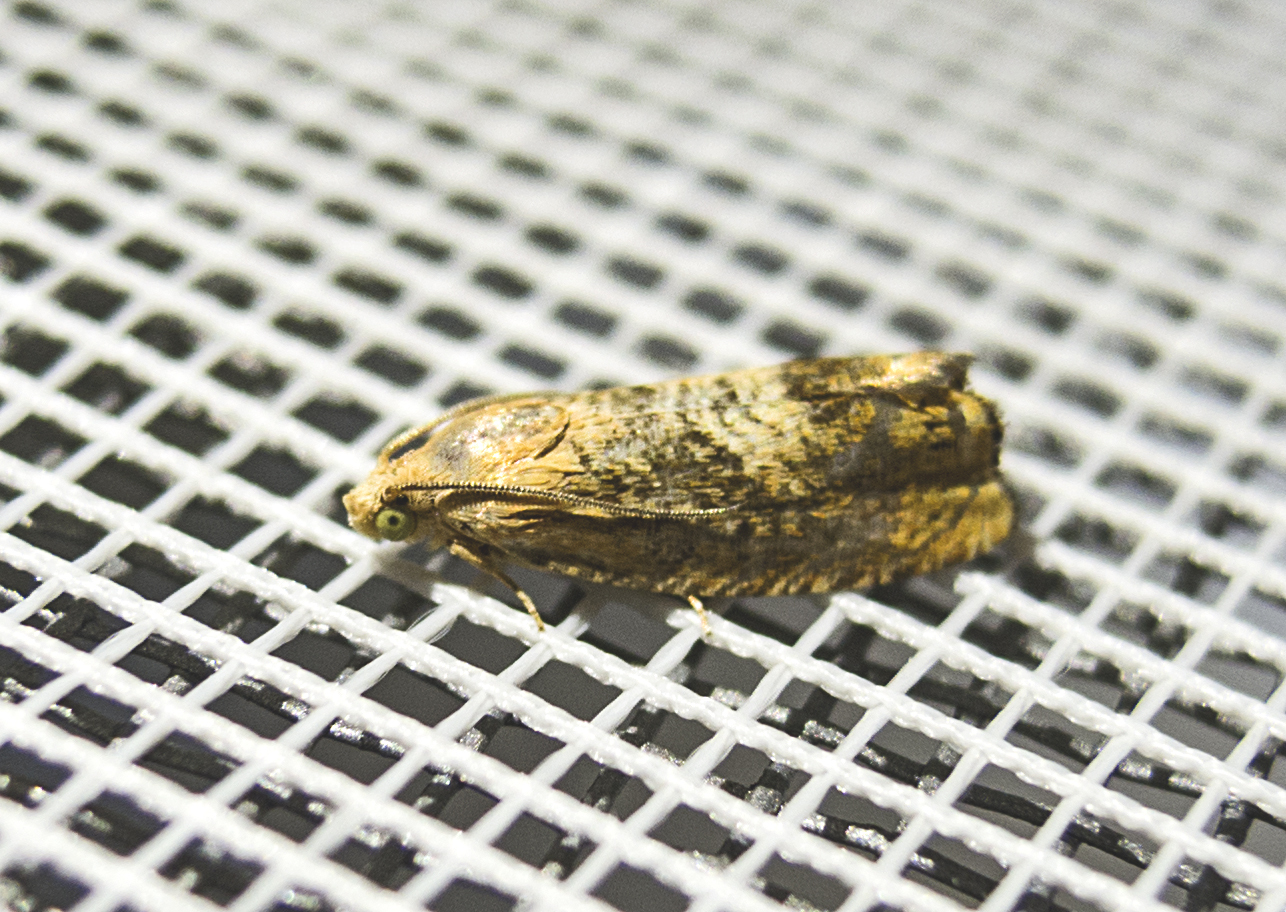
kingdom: Animalia
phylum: Arthropoda
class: Insecta
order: Lepidoptera
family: Tortricidae
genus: Cydia
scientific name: Cydia amplana
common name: Vagrant piercer
